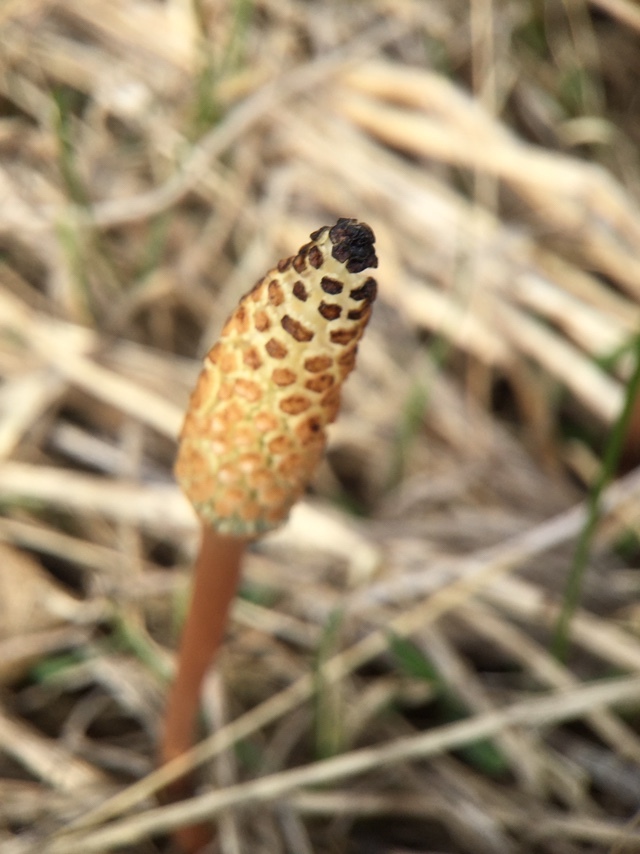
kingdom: Plantae
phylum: Tracheophyta
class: Polypodiopsida
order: Equisetales
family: Equisetaceae
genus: Equisetum
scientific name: Equisetum arvense
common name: Field horsetail
